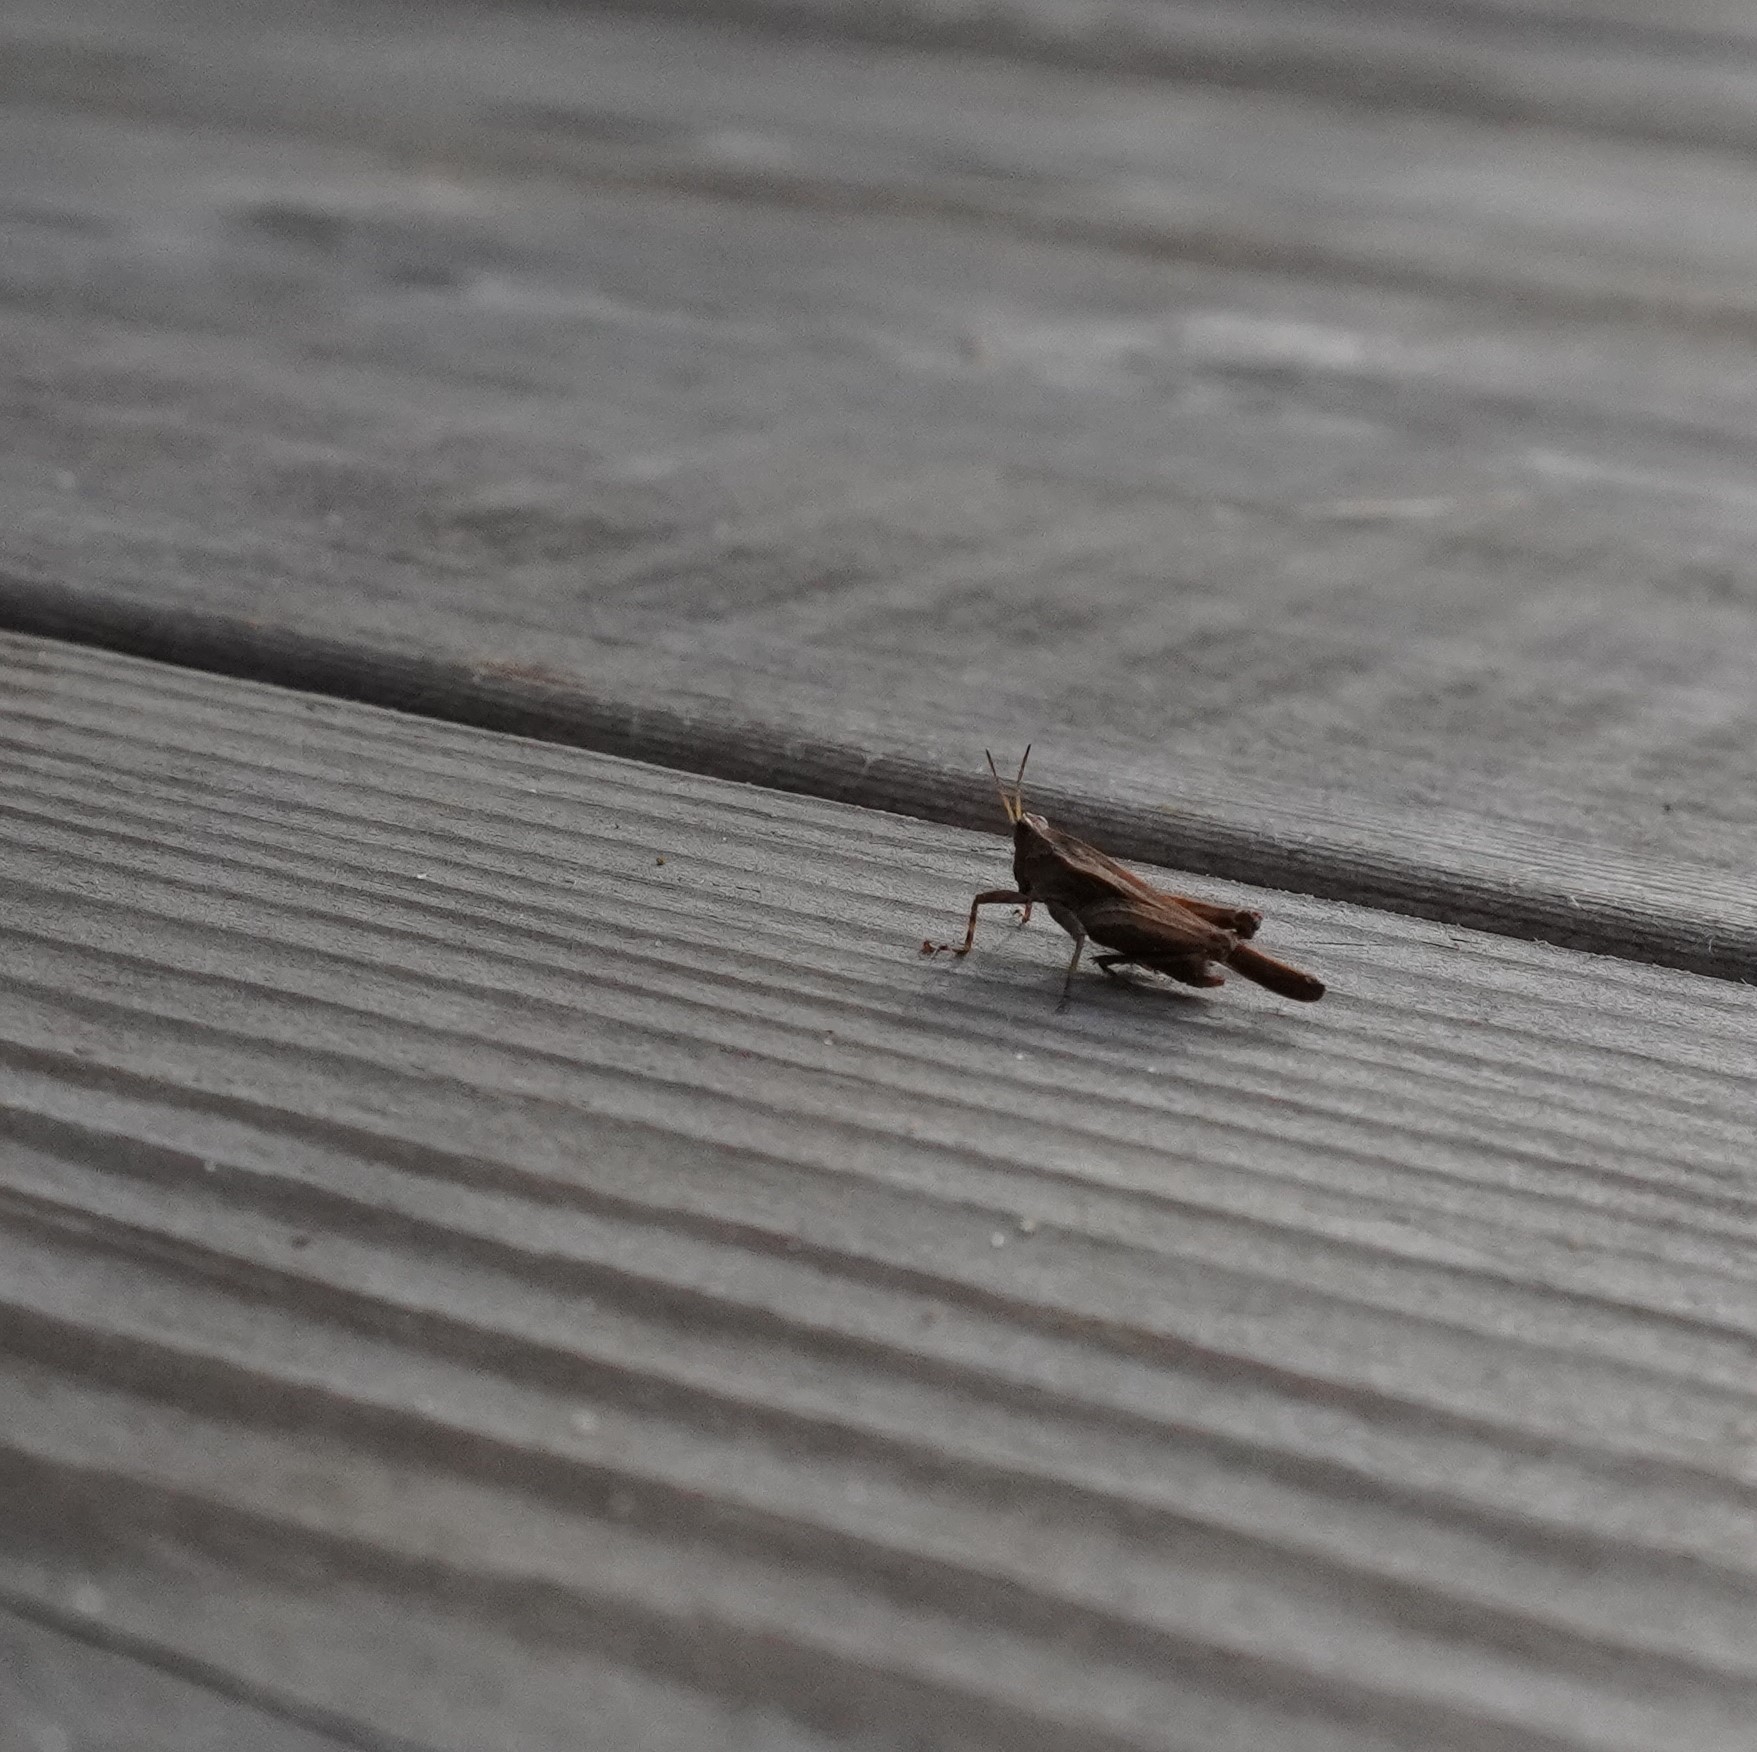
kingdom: Animalia
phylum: Arthropoda
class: Insecta
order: Orthoptera
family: Tetrigidae
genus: Tetrix
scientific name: Tetrix subulata
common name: Slender ground-hopper
